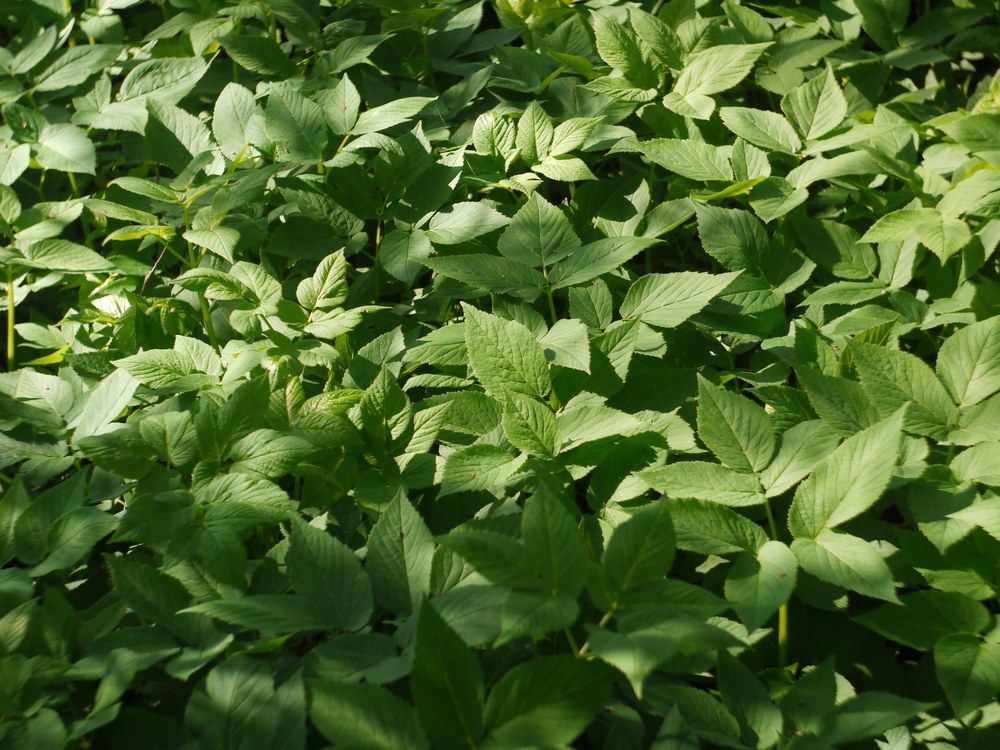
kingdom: Plantae
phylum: Tracheophyta
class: Magnoliopsida
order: Apiales
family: Apiaceae
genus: Aegopodium
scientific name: Aegopodium podagraria
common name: Ground-elder
